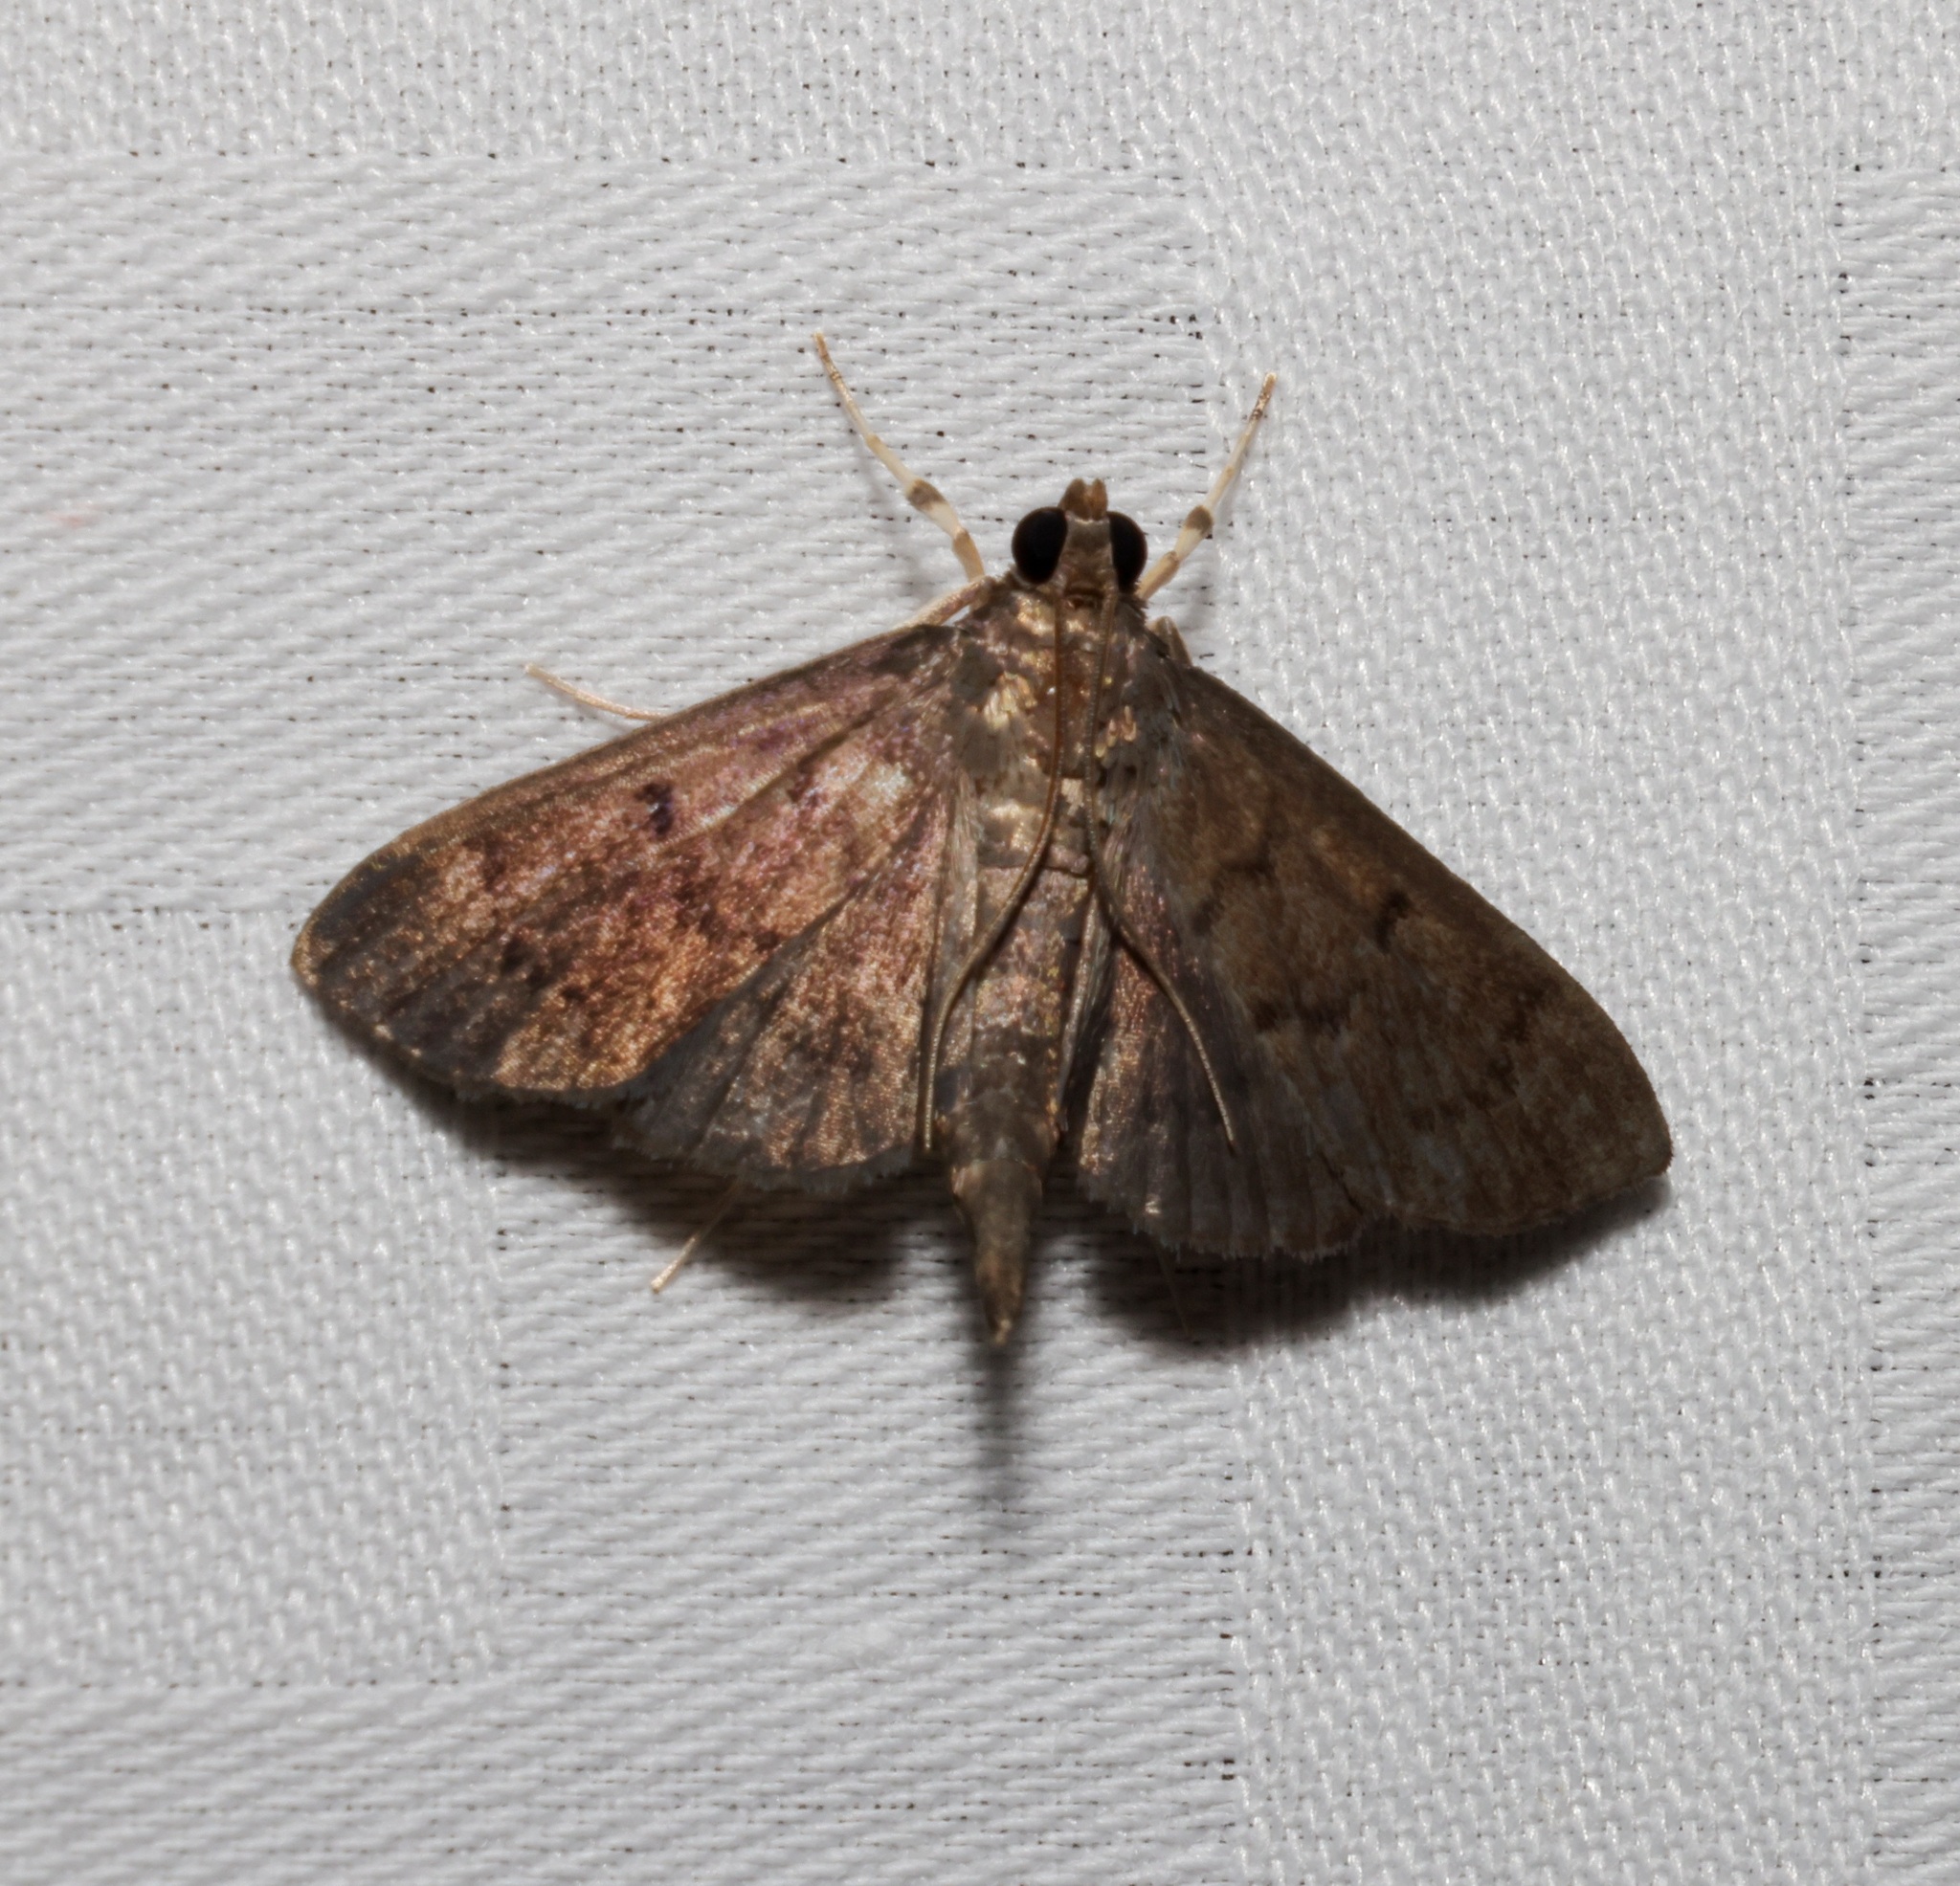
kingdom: Animalia
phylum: Arthropoda
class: Insecta
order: Lepidoptera
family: Crambidae
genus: Lamprosema
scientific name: Lamprosema tristrialis
